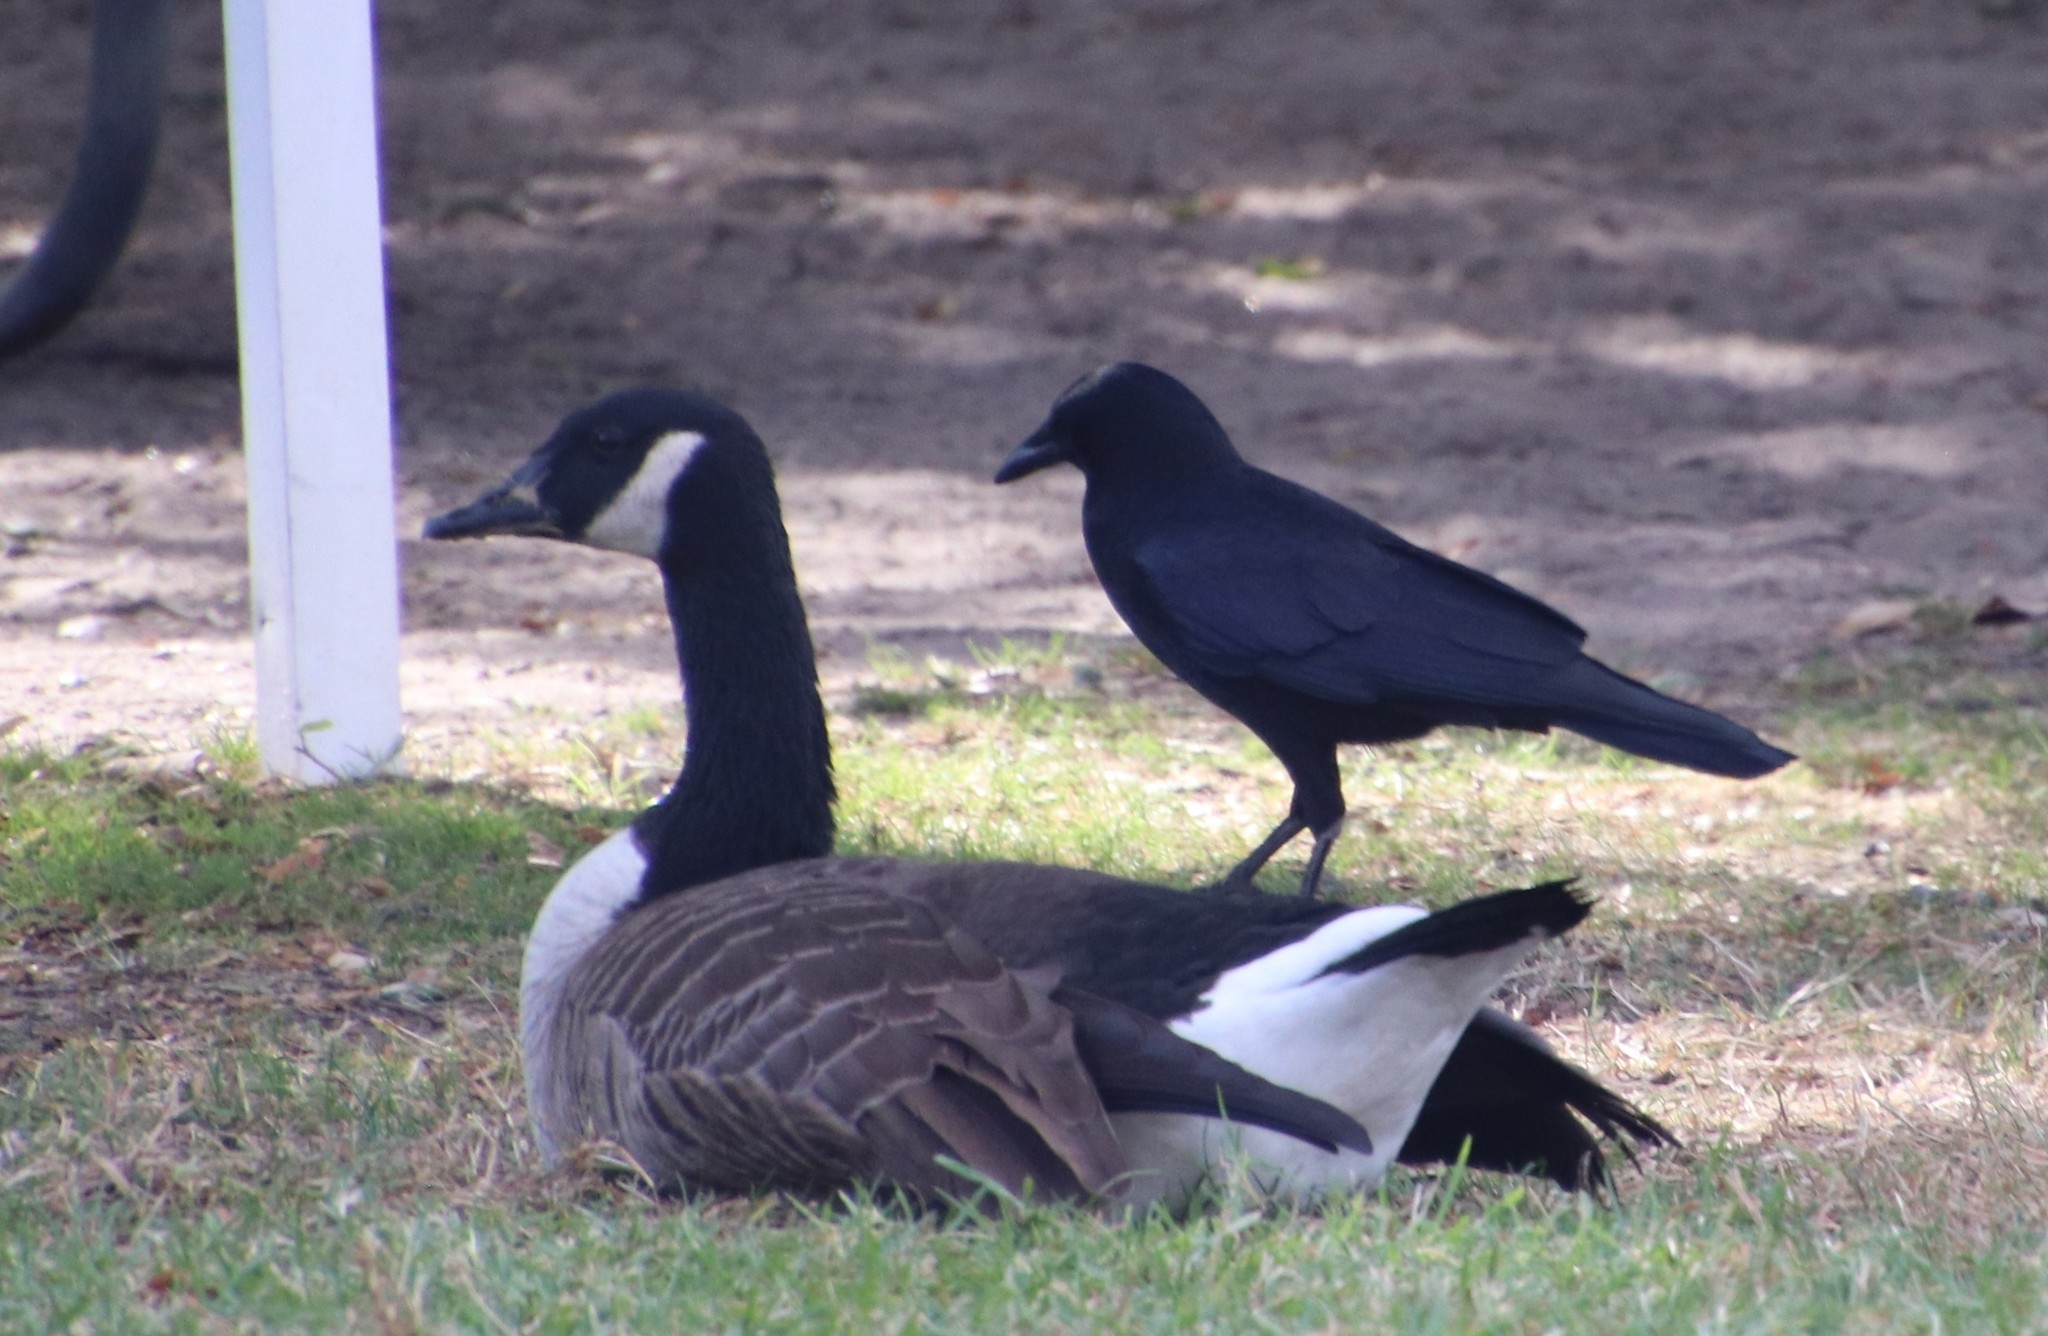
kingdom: Animalia
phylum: Chordata
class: Aves
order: Anseriformes
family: Anatidae
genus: Branta
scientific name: Branta canadensis
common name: Canada goose
